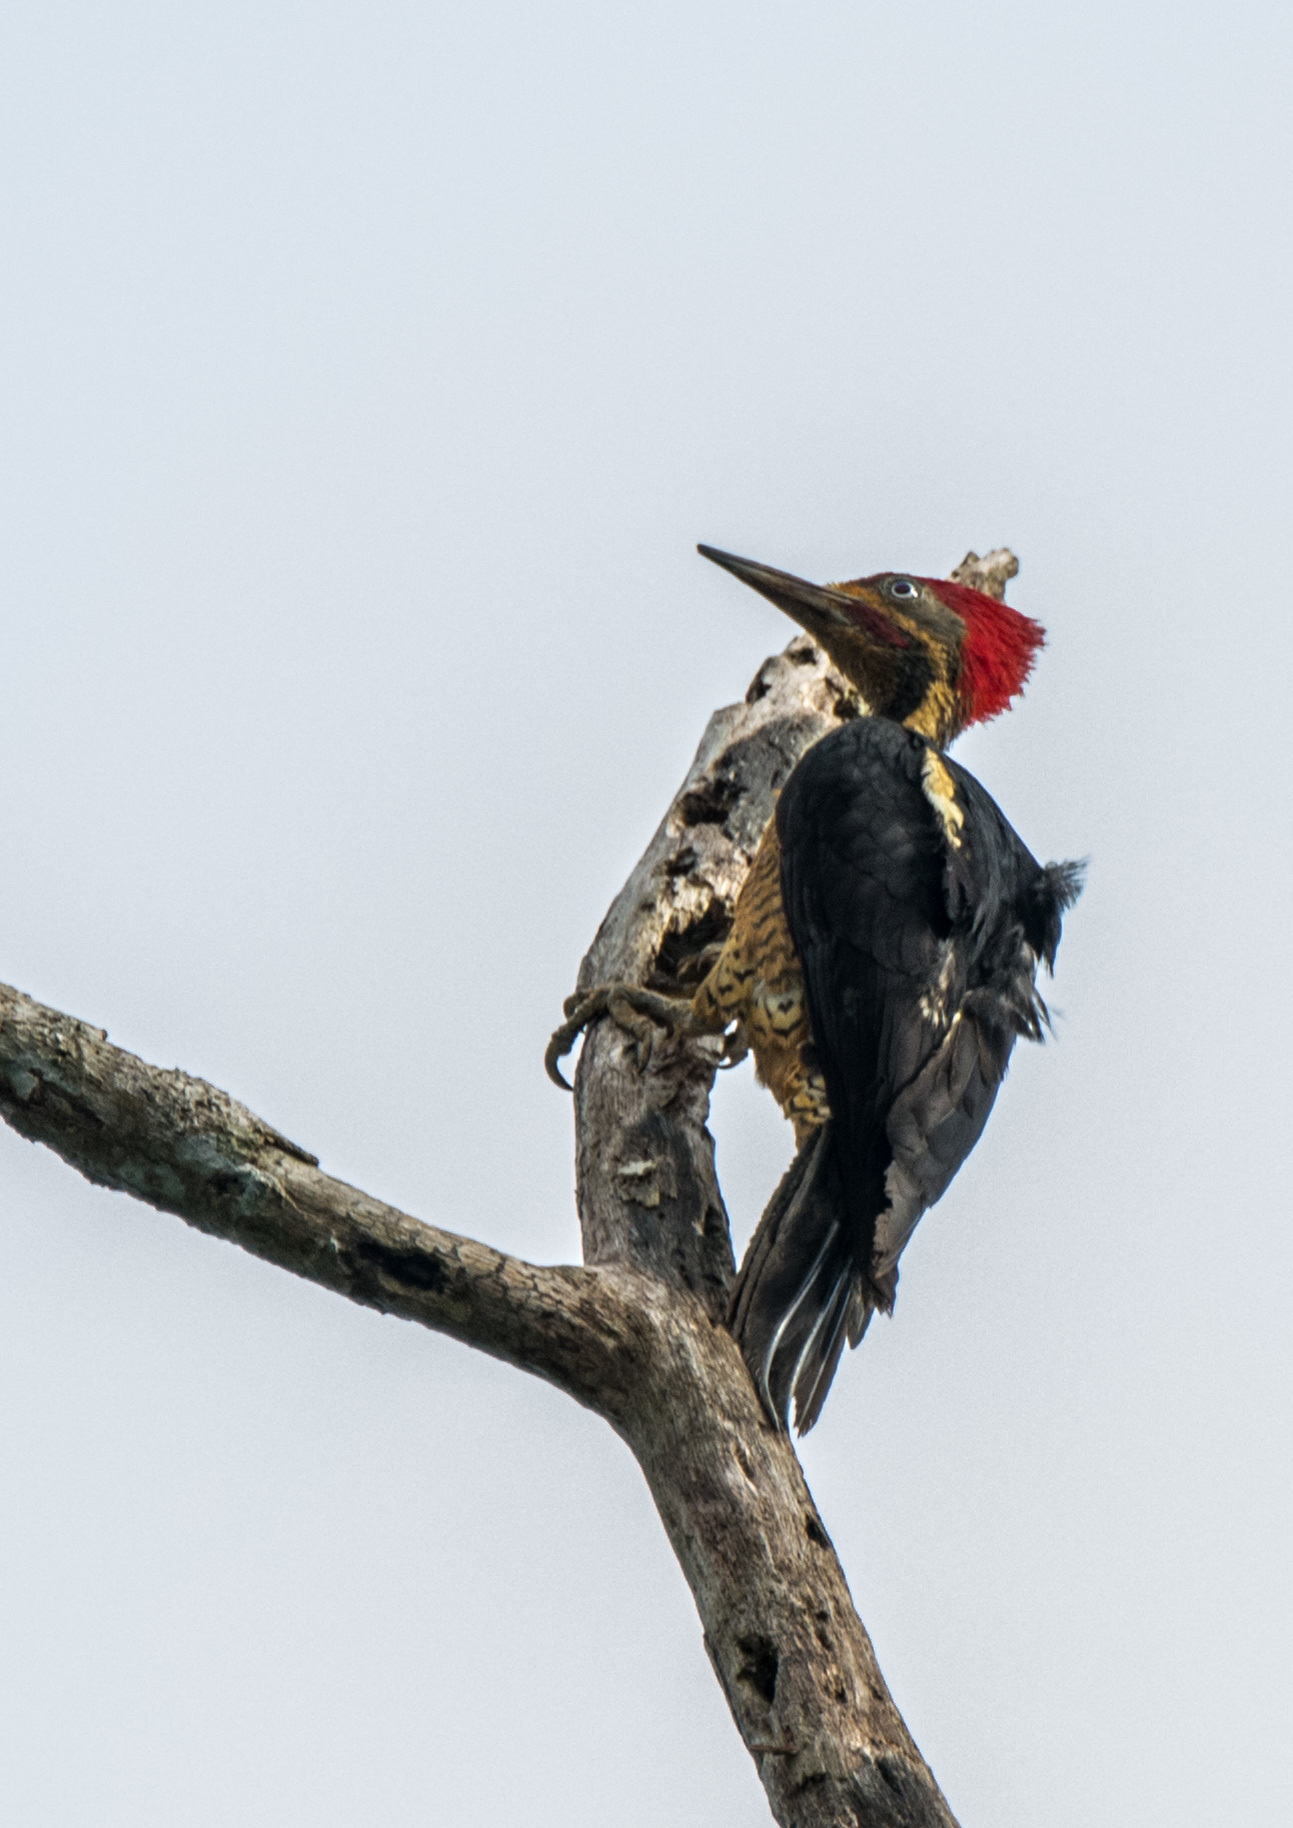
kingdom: Animalia
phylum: Chordata
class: Aves
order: Piciformes
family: Picidae
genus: Dryocopus
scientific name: Dryocopus lineatus
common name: Lineated woodpecker
